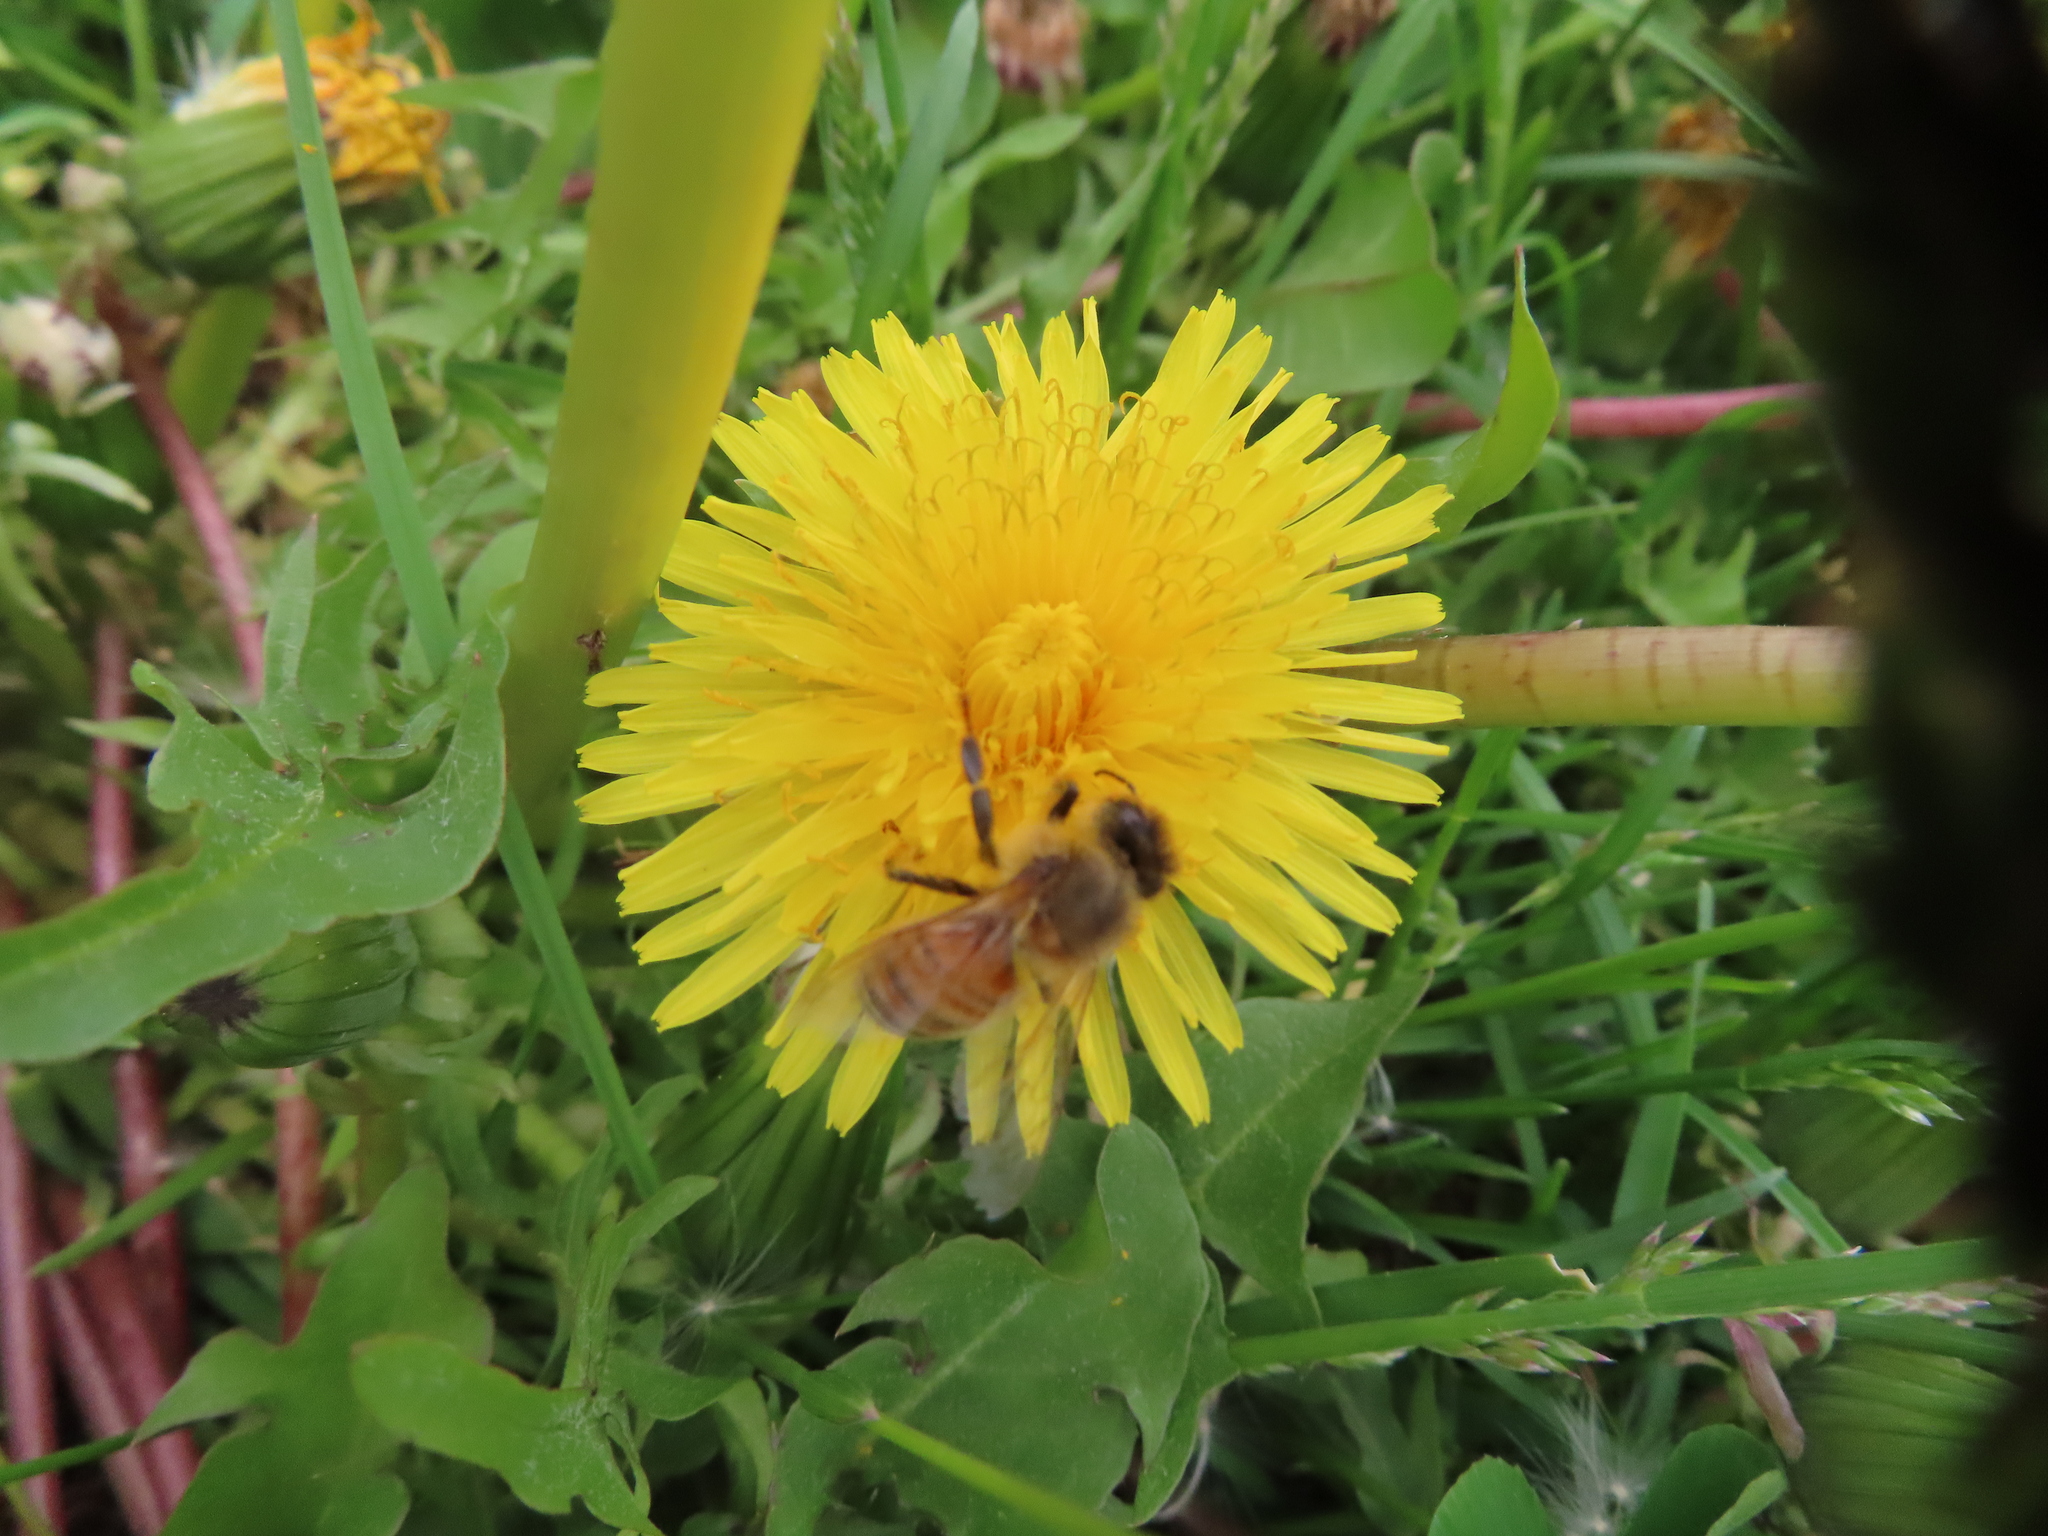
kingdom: Animalia
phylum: Arthropoda
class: Insecta
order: Hymenoptera
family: Apidae
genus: Apis
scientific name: Apis mellifera
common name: Honey bee
